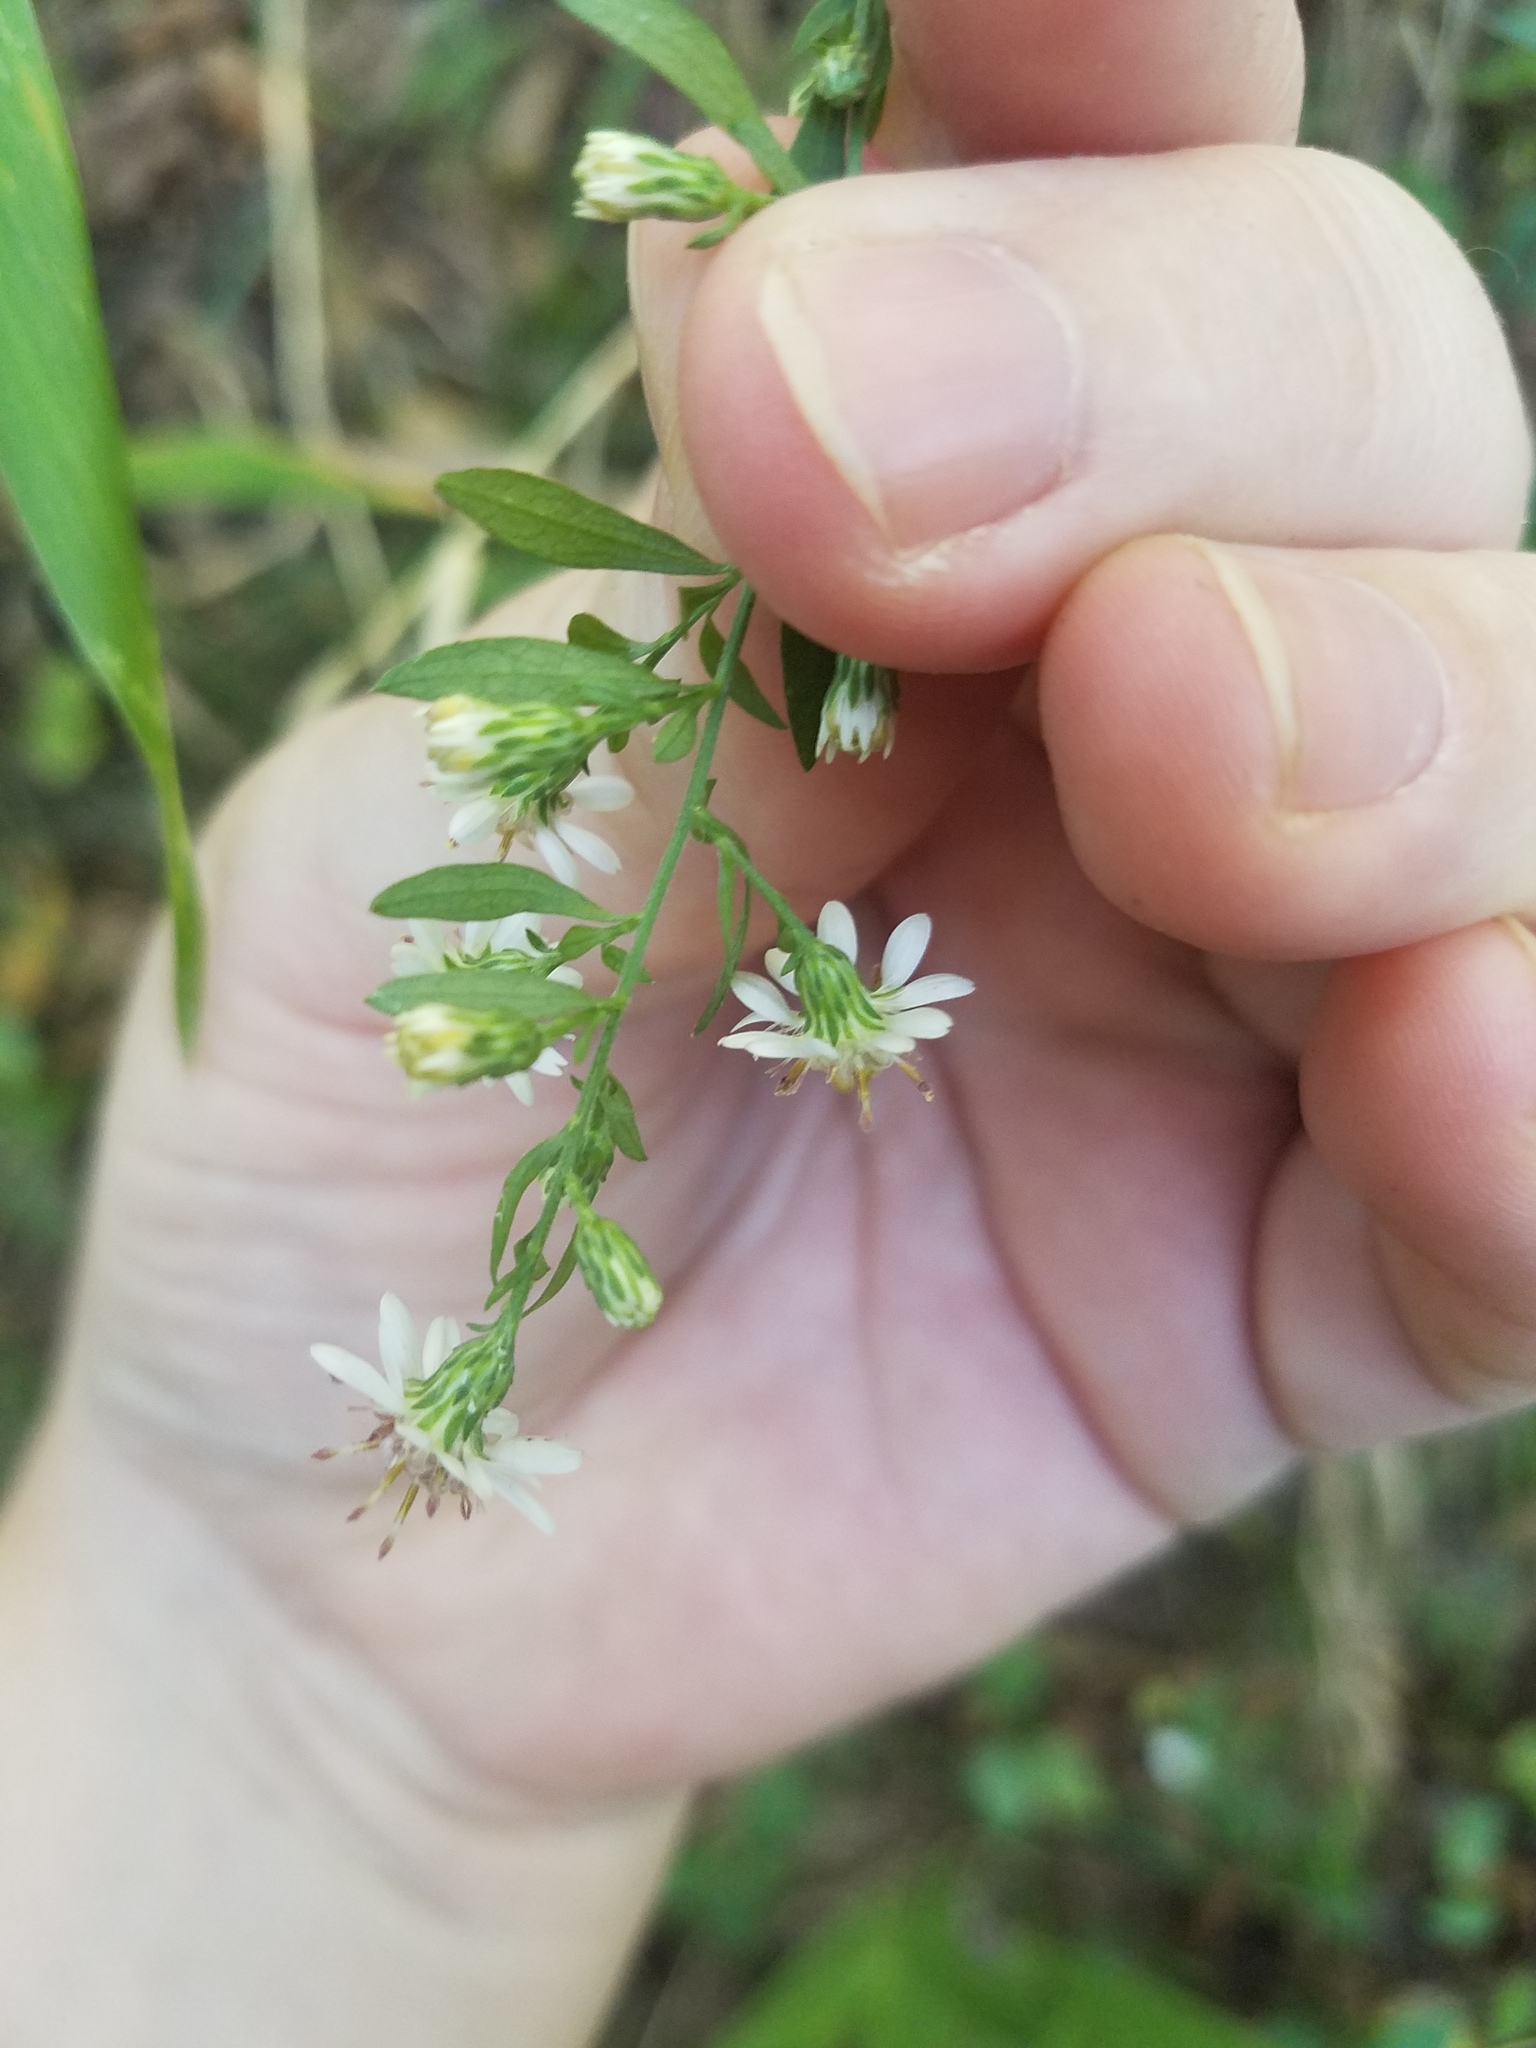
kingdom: Plantae
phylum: Tracheophyta
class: Magnoliopsida
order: Asterales
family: Asteraceae
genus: Symphyotrichum
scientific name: Symphyotrichum lateriflorum
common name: Calico aster
